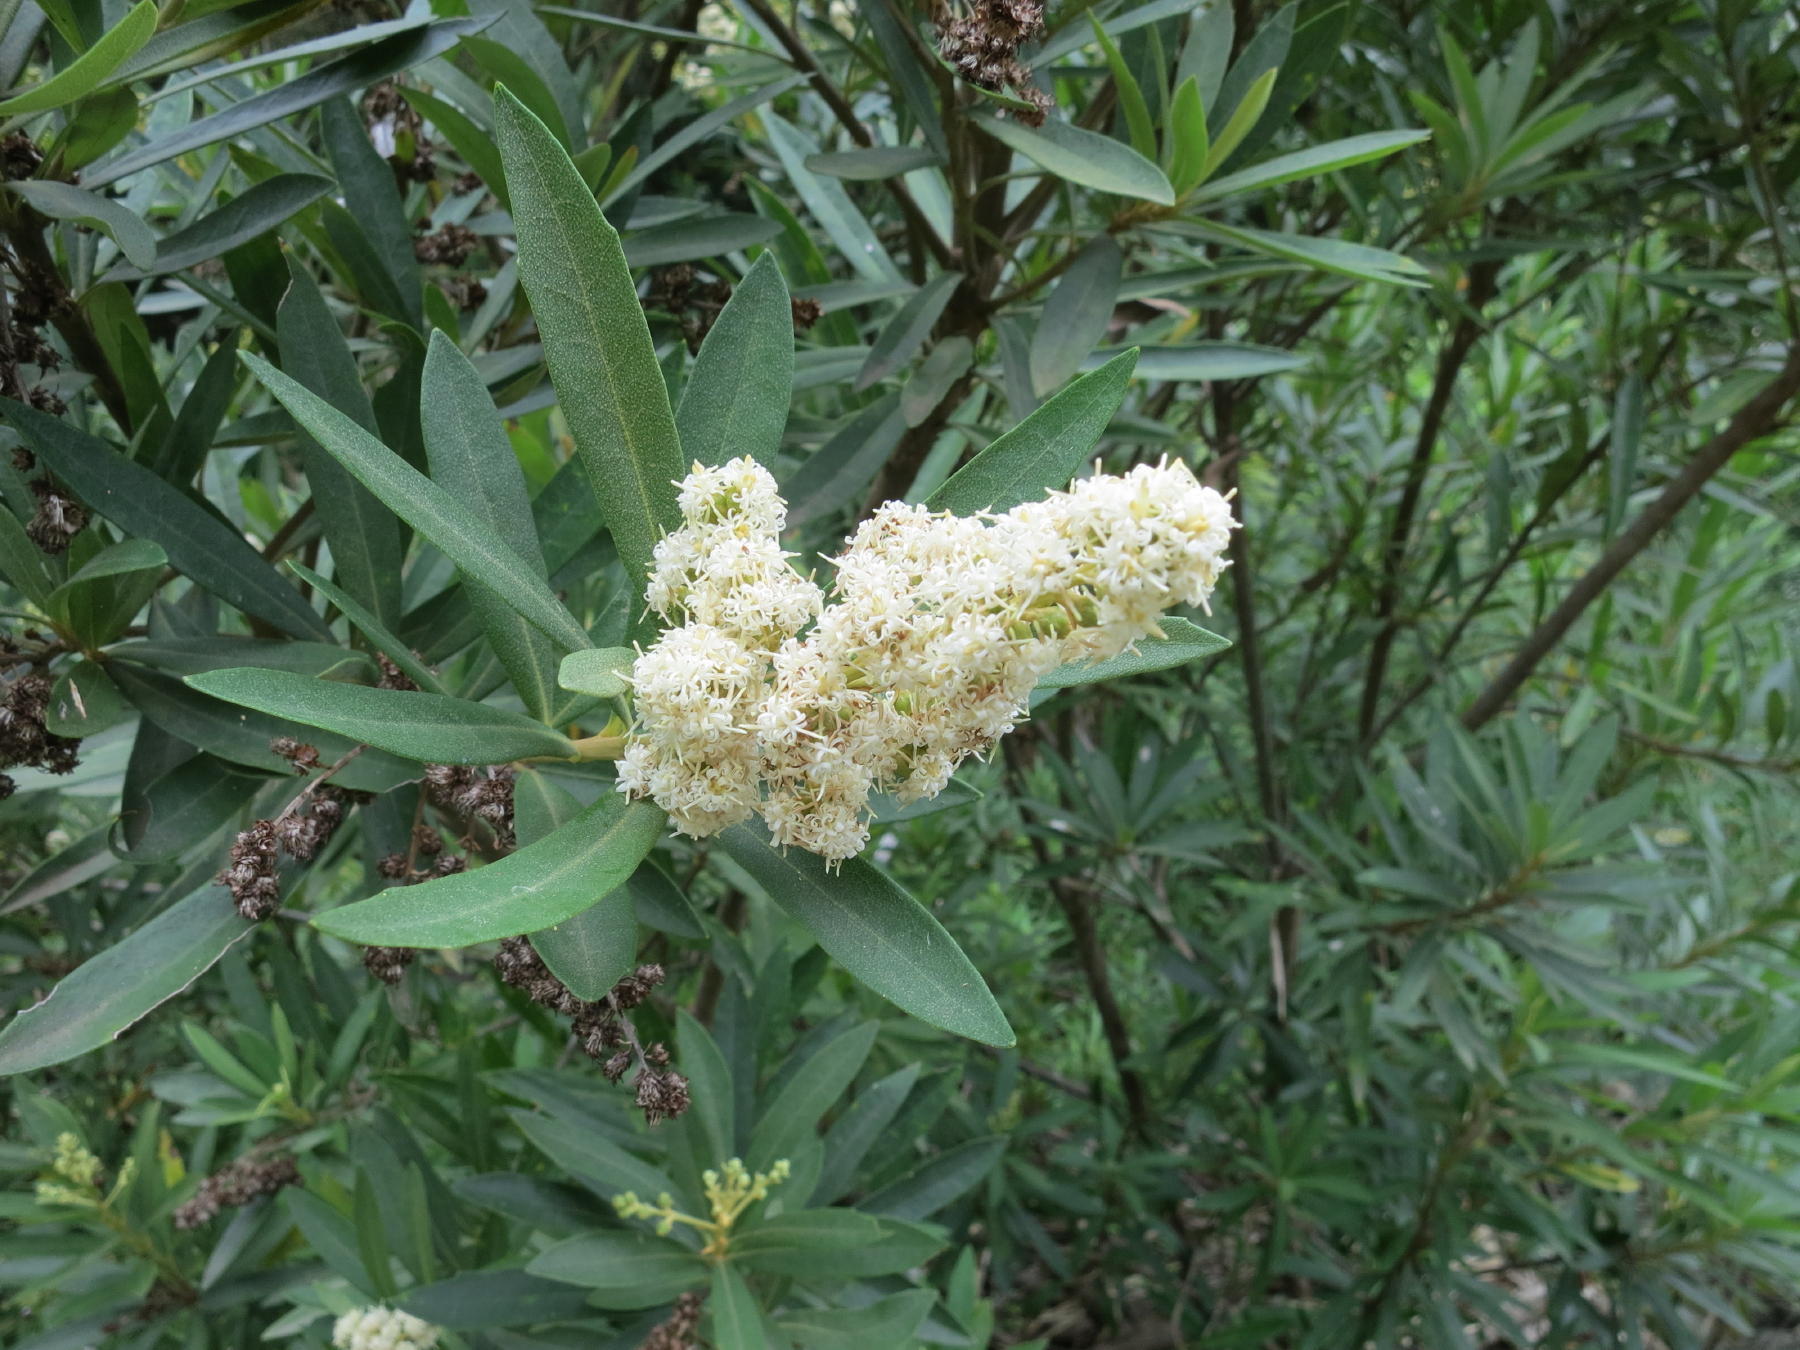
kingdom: Plantae
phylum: Tracheophyta
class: Magnoliopsida
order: Asterales
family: Asteraceae
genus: Brachylaena
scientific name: Brachylaena neriifolia
